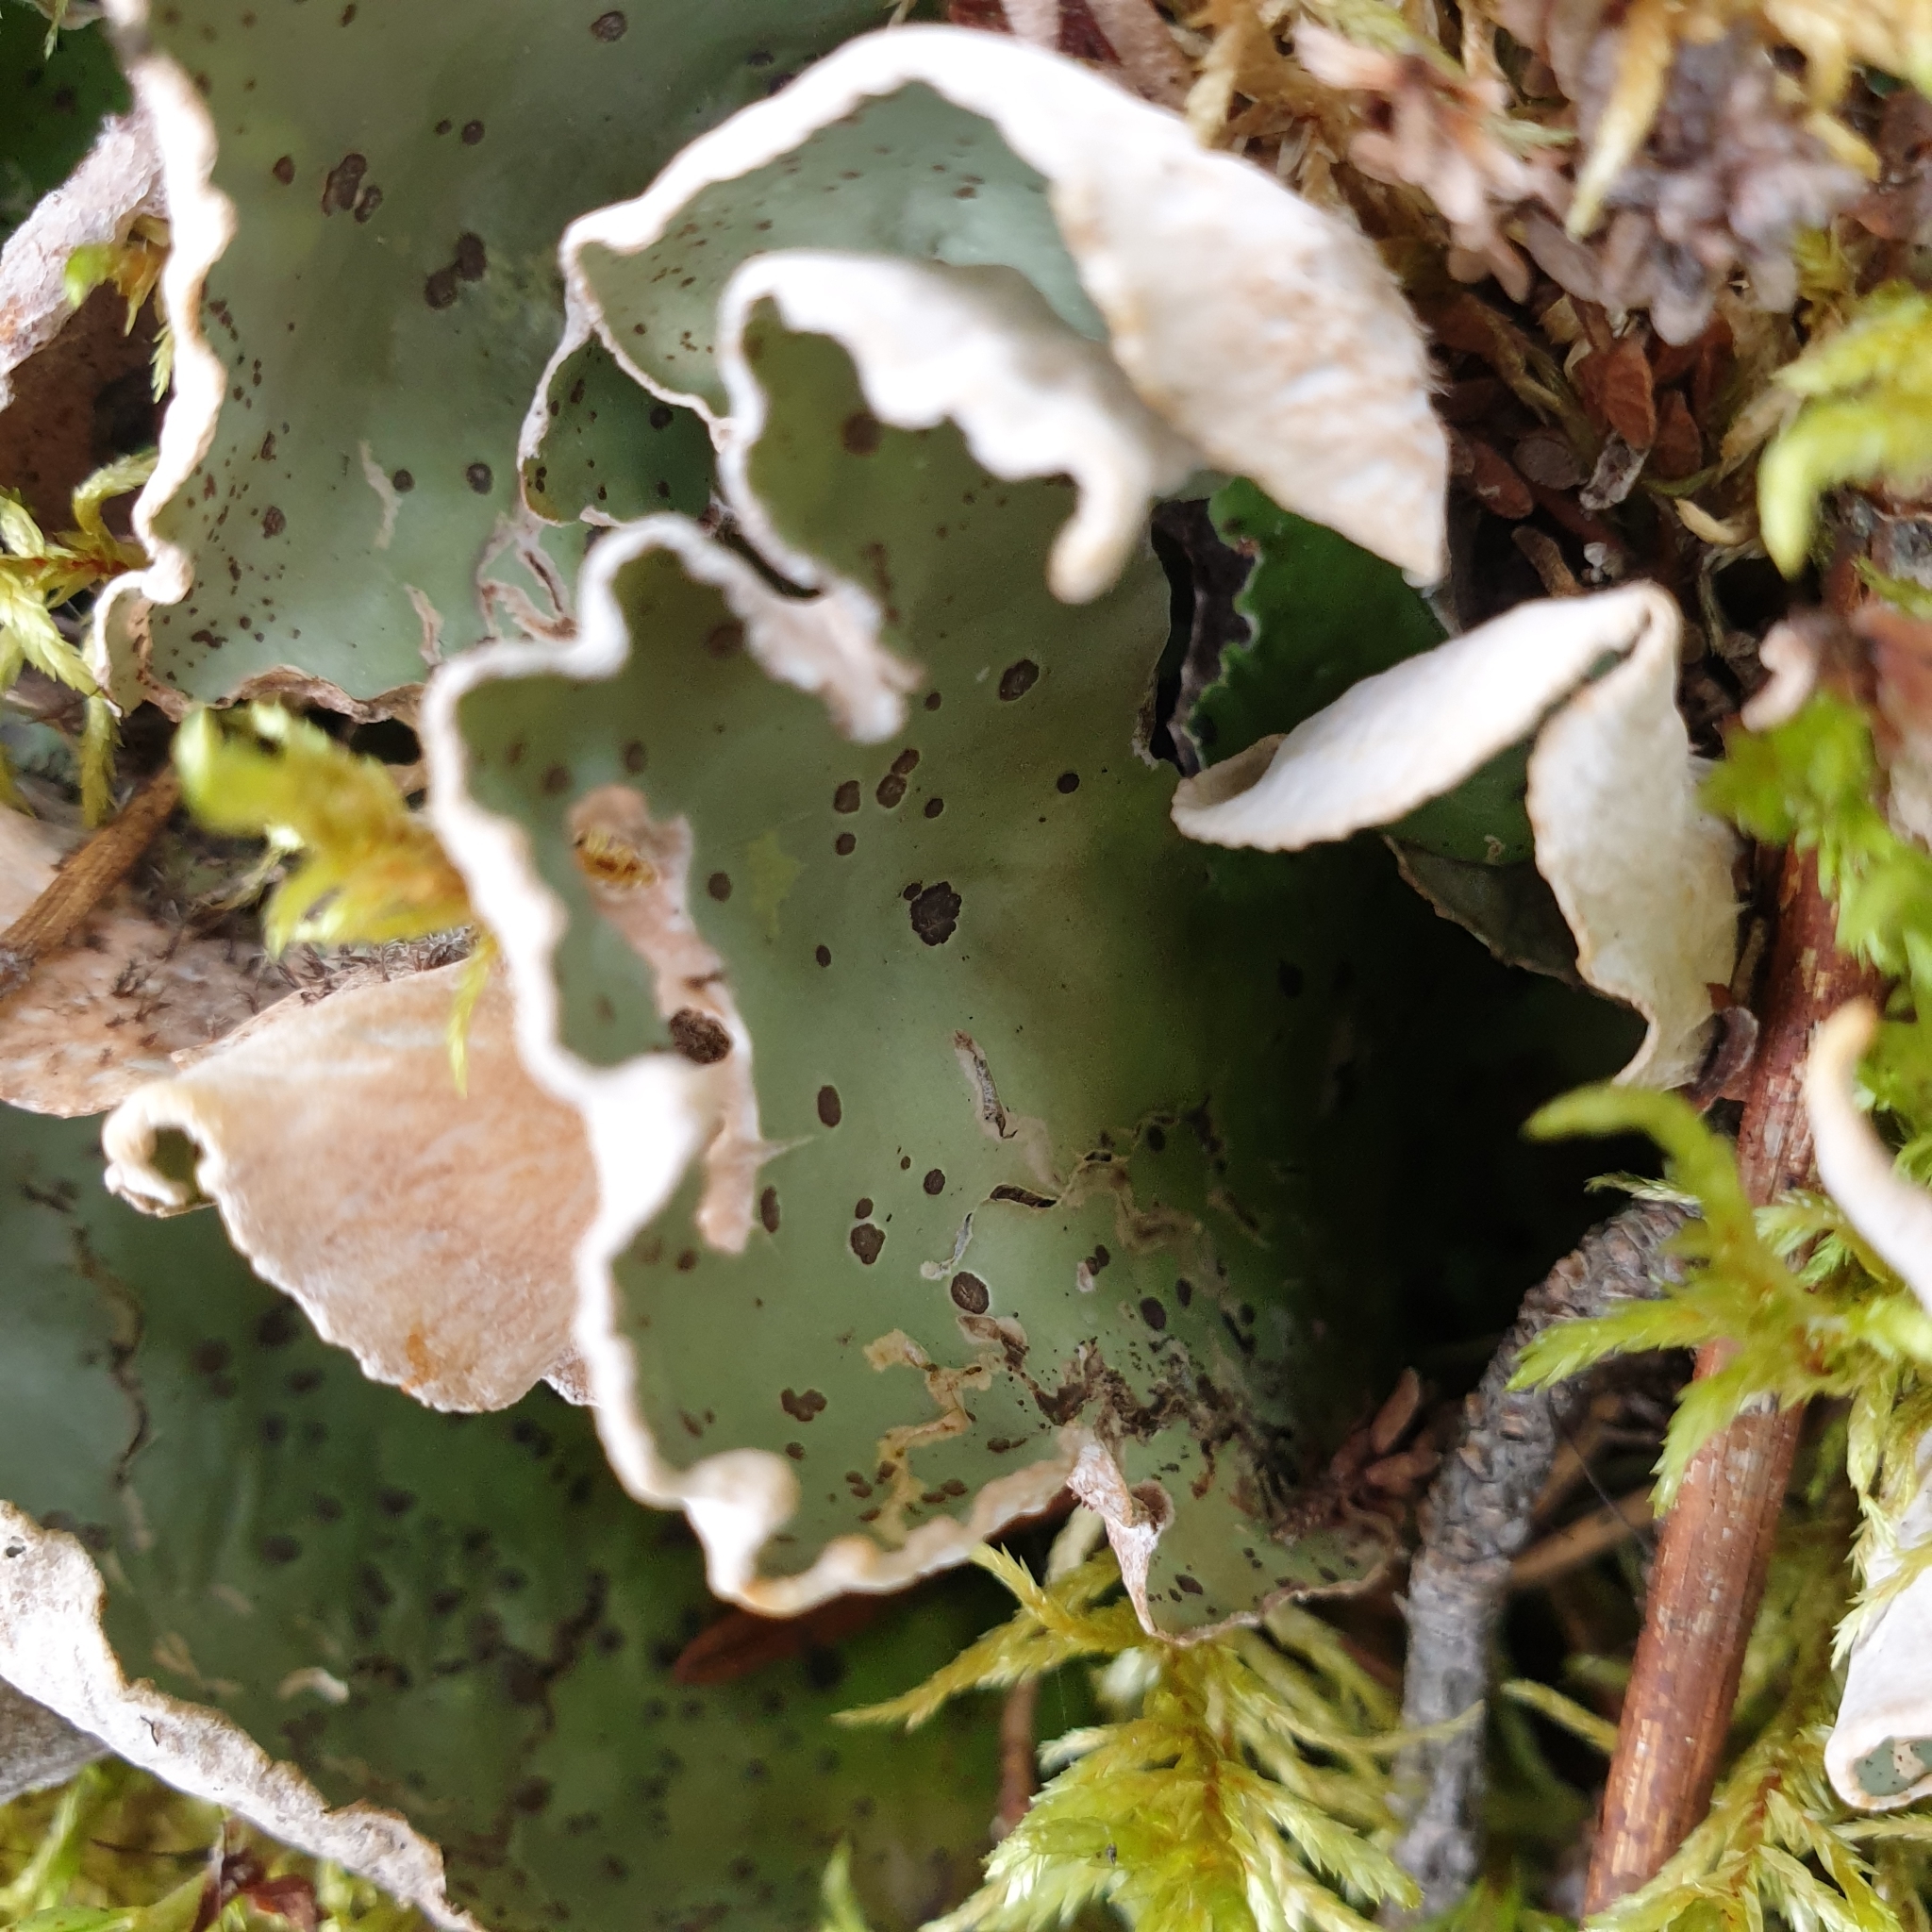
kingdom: Fungi
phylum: Ascomycota
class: Lecanoromycetes
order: Peltigerales
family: Peltigeraceae
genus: Peltigera
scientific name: Peltigera aphthosa
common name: Common freckle pelt lichen
